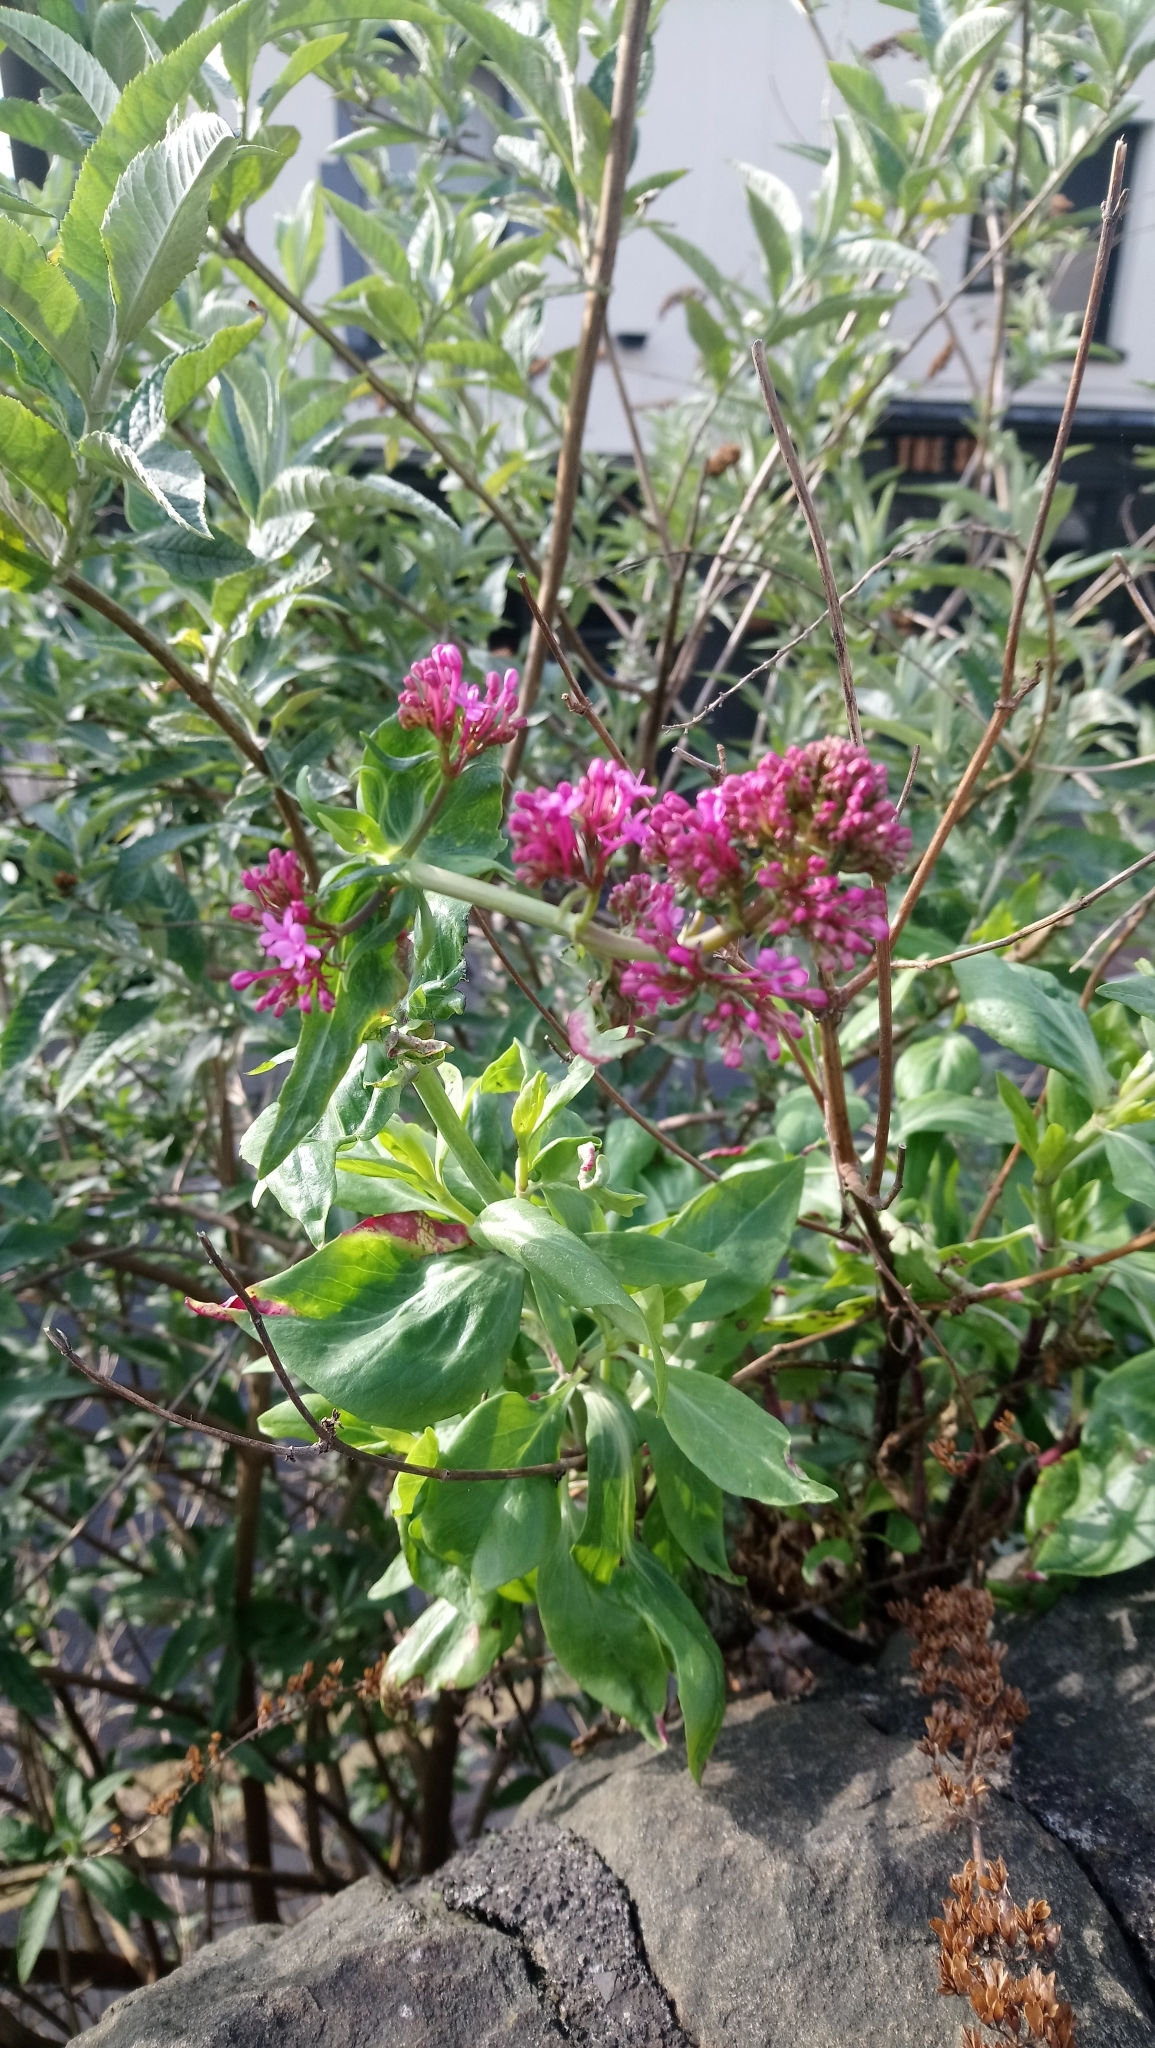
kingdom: Plantae
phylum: Tracheophyta
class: Magnoliopsida
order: Dipsacales
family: Caprifoliaceae
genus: Centranthus
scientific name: Centranthus ruber
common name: Red valerian
